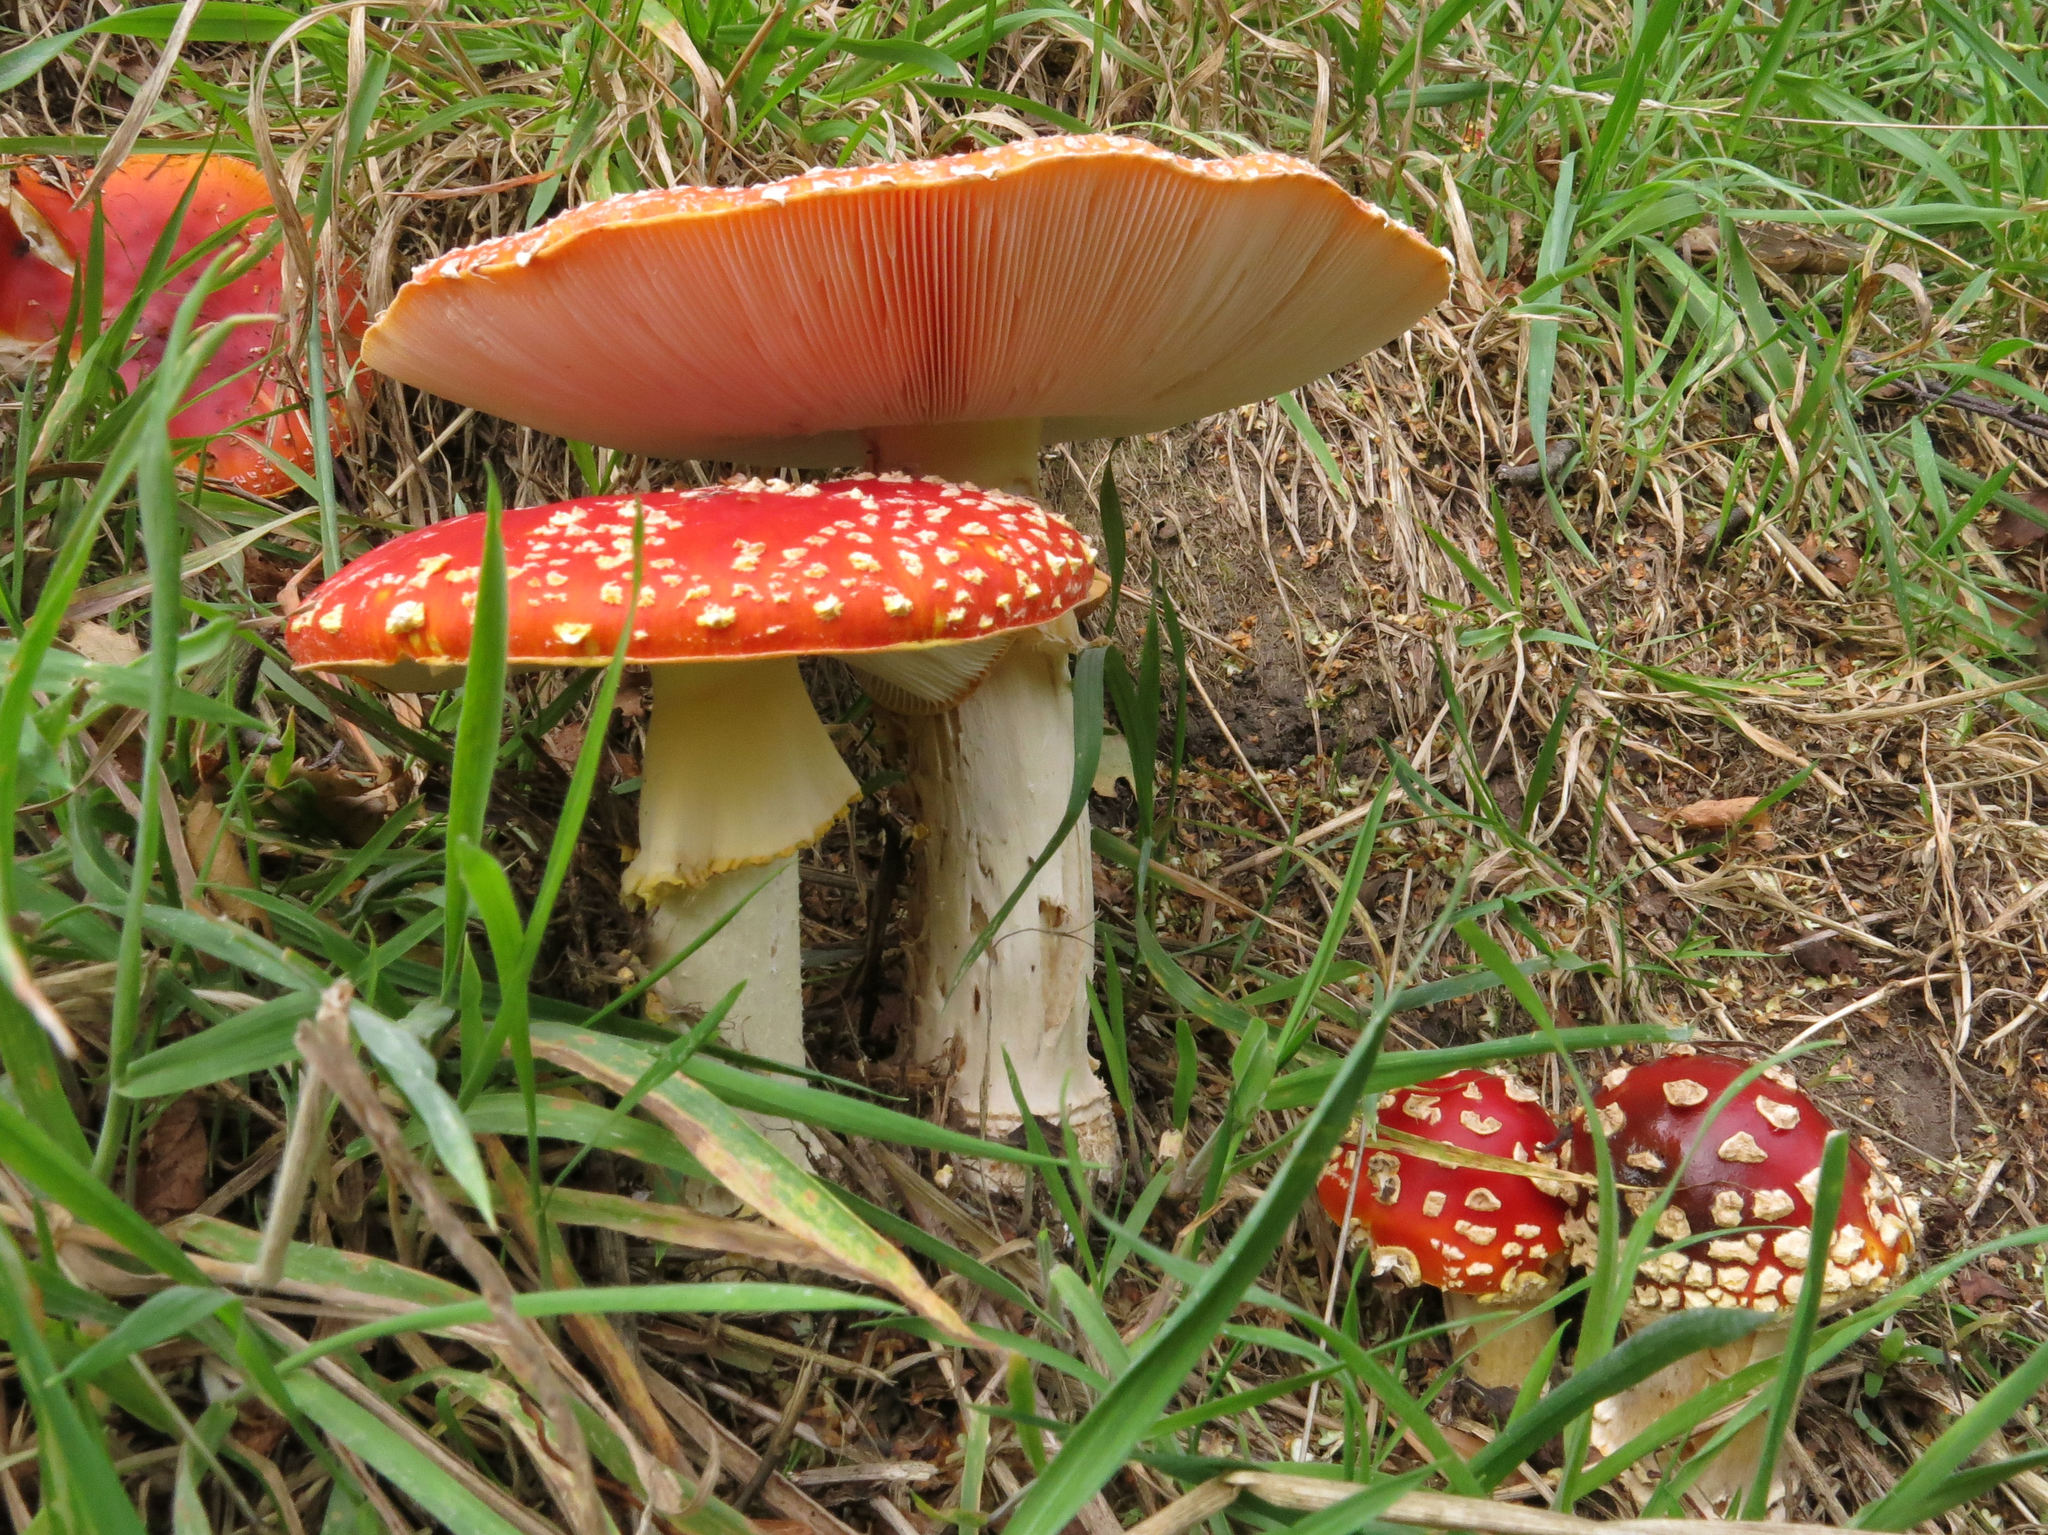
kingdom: Fungi
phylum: Basidiomycota
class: Agaricomycetes
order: Agaricales
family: Amanitaceae
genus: Amanita
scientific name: Amanita muscaria
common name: Fly agaric
